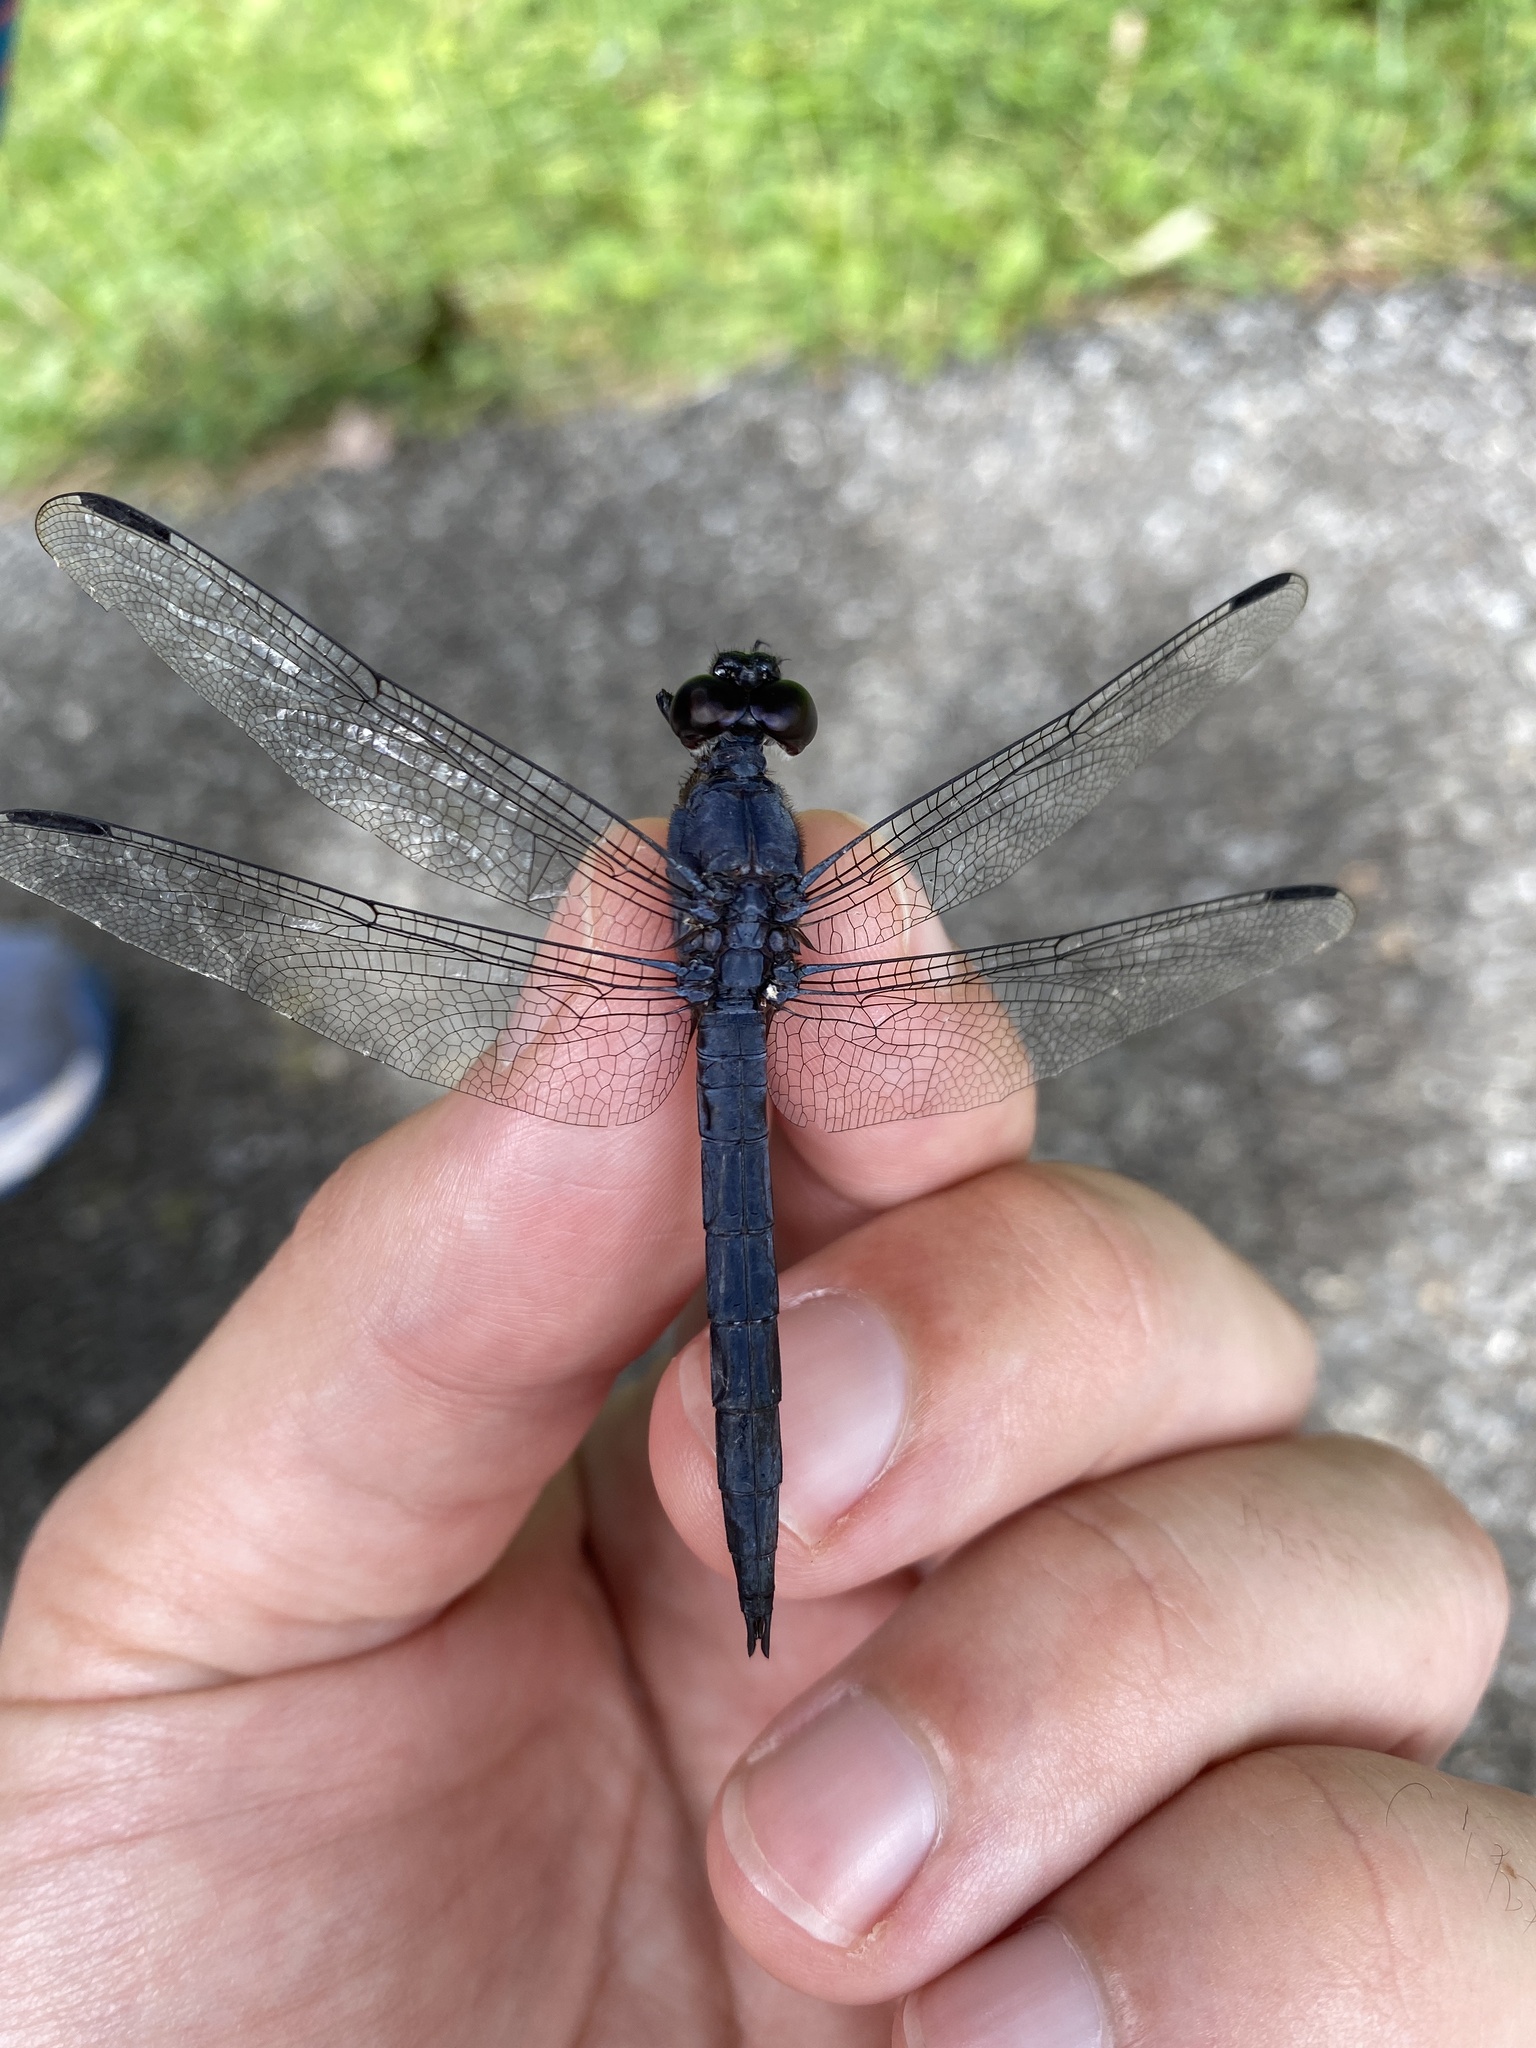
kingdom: Animalia
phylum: Arthropoda
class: Insecta
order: Odonata
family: Libellulidae
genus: Libellula
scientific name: Libellula incesta
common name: Slaty skimmer
